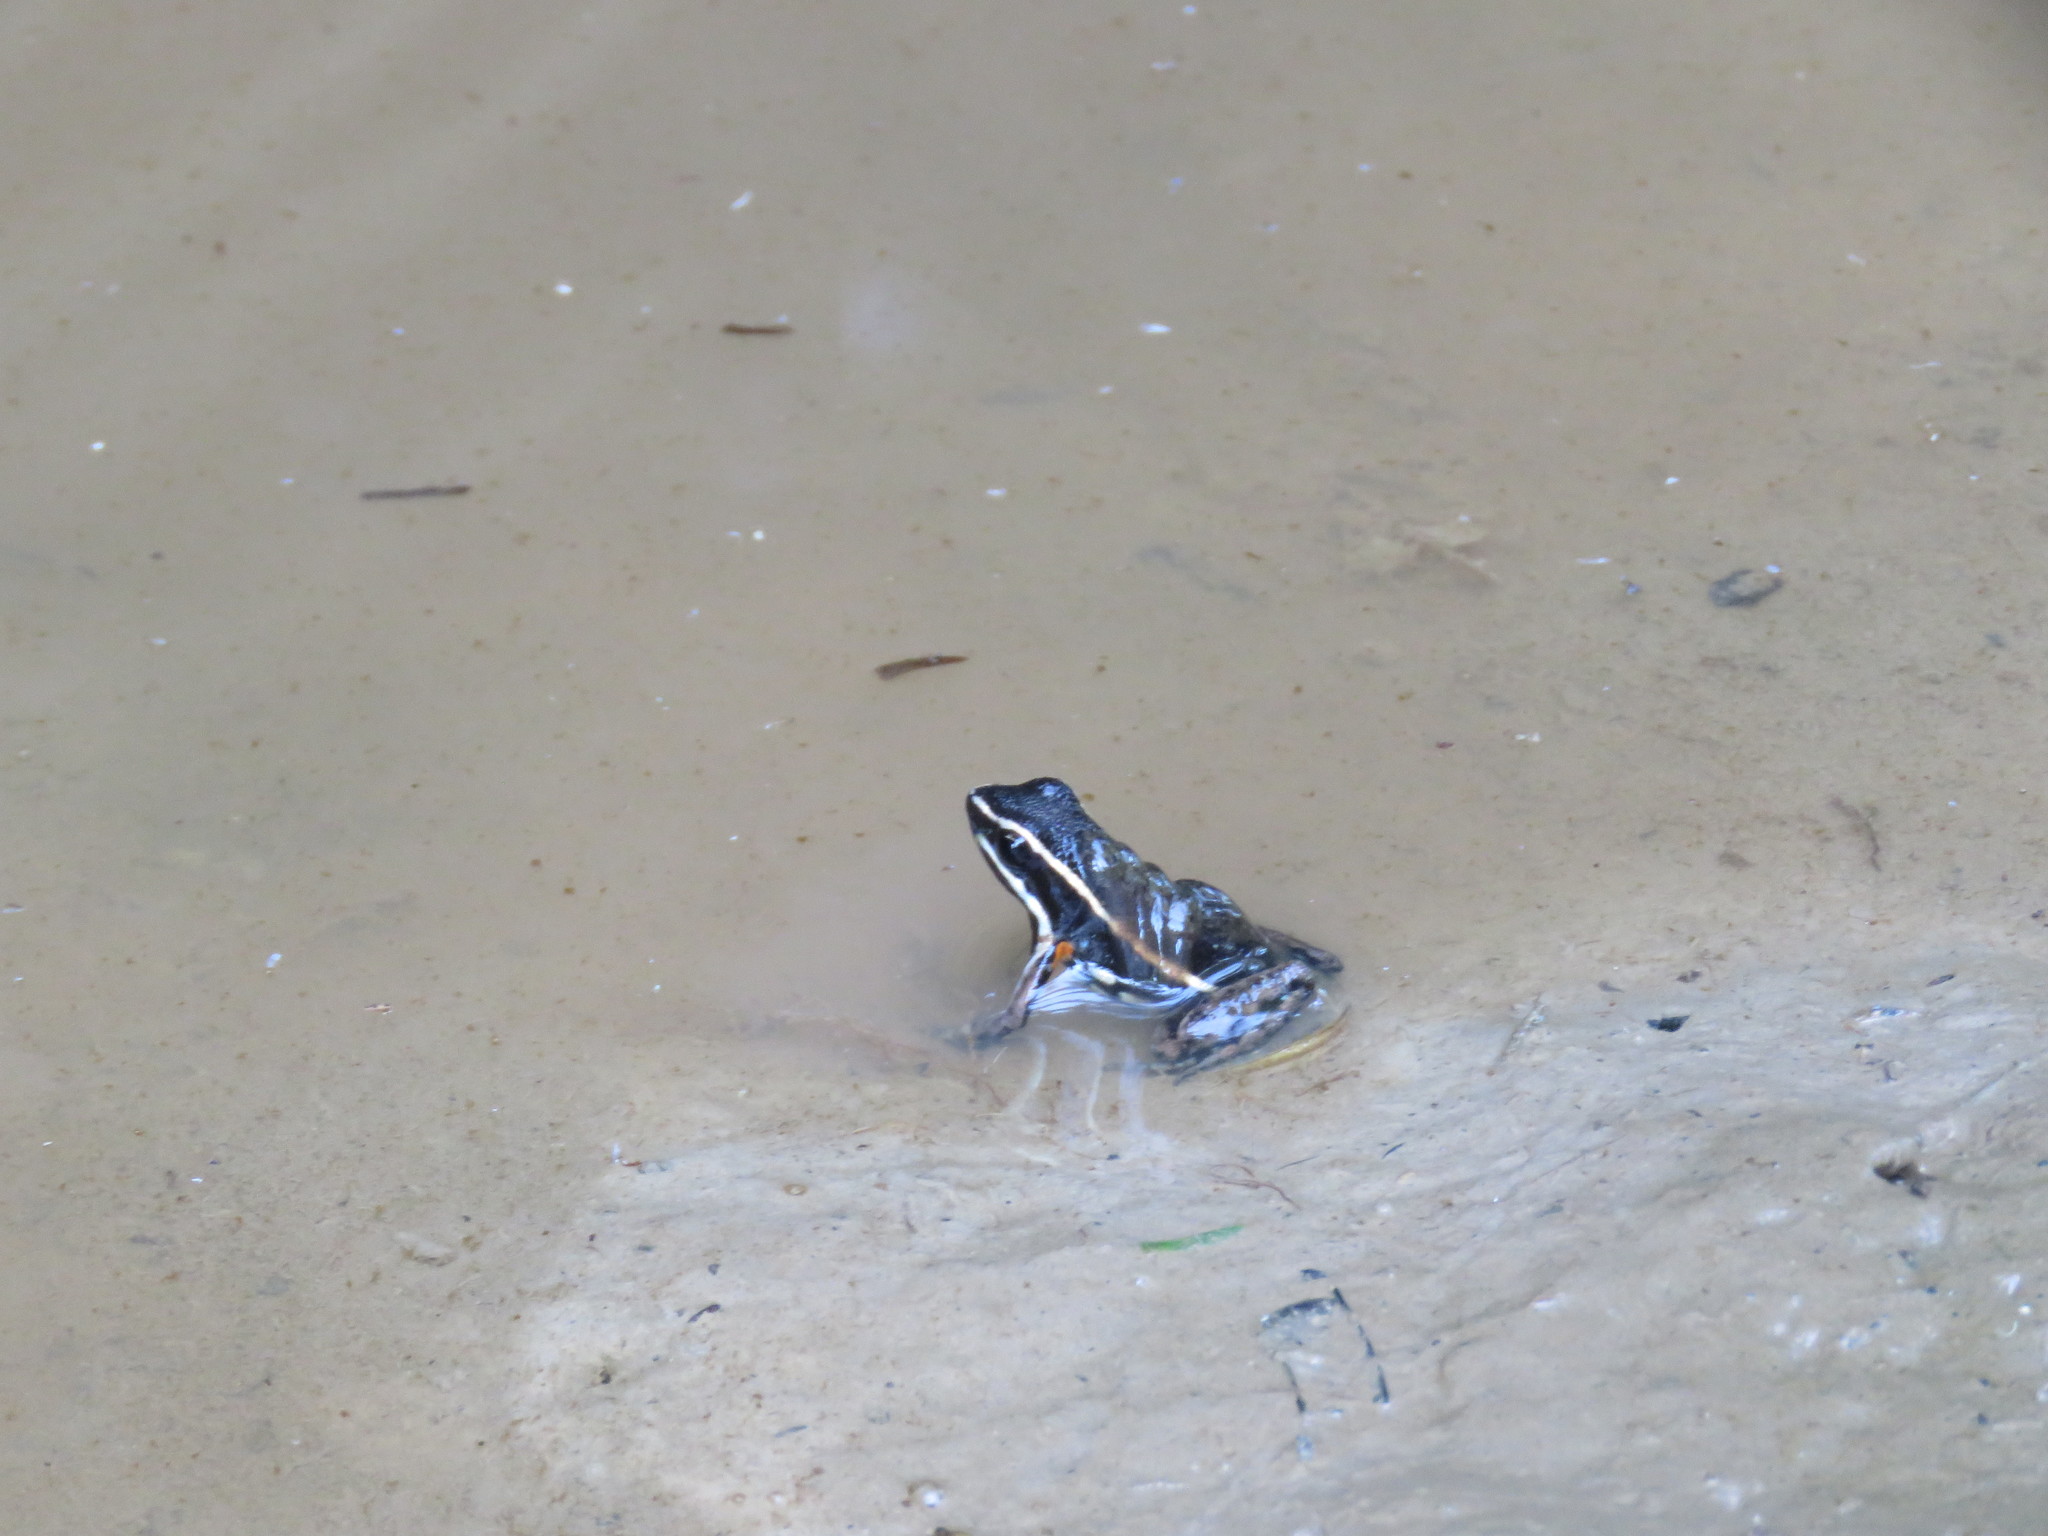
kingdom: Animalia
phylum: Chordata
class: Amphibia
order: Anura
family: Dendrobatidae
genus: Ameerega
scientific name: Ameerega picta
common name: Spot-legged poison frog
